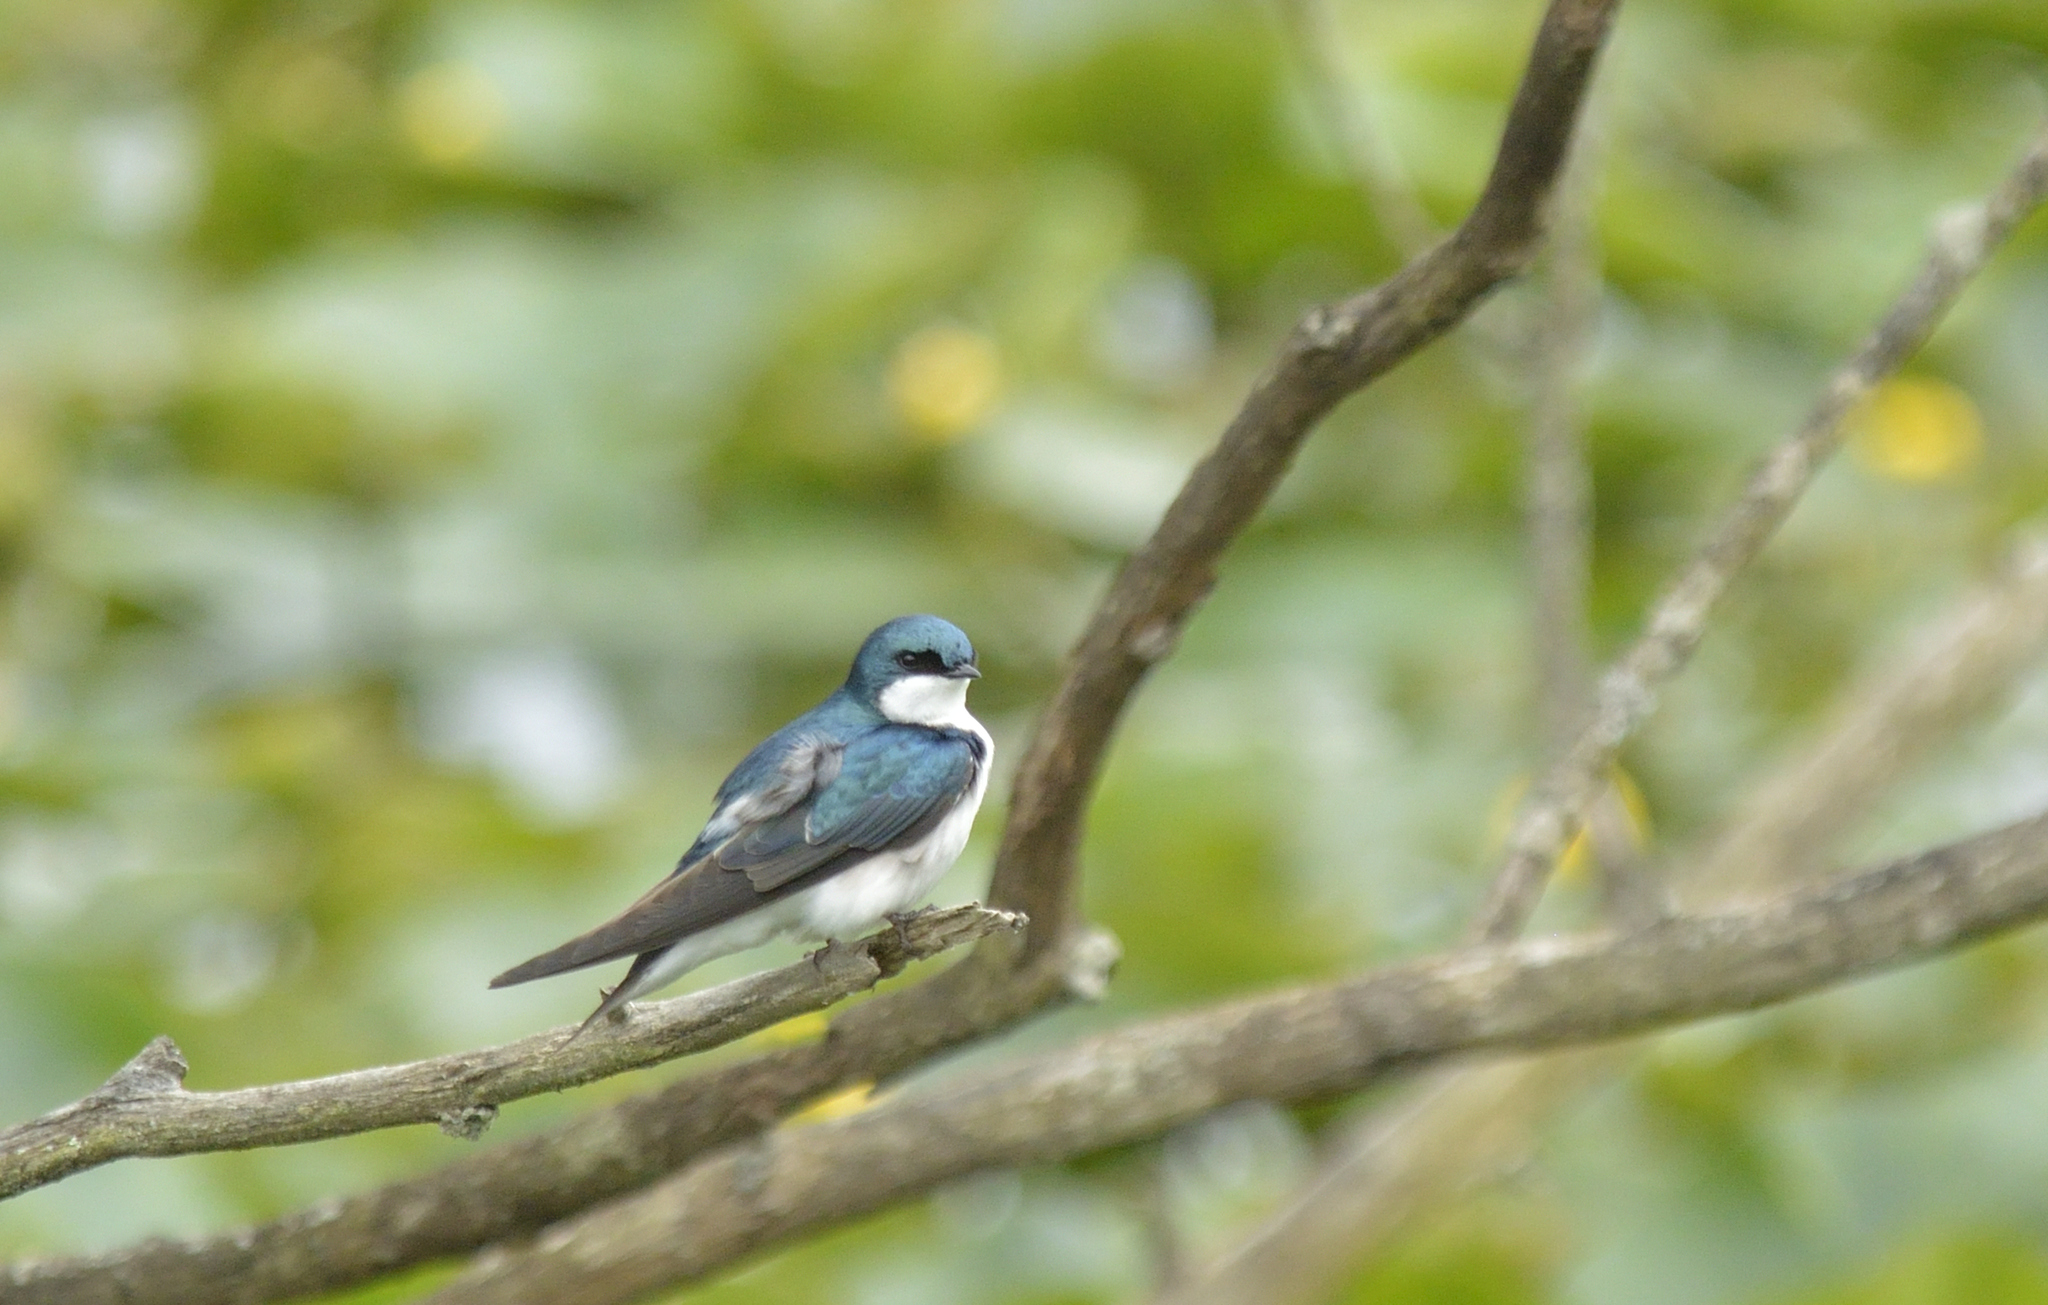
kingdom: Animalia
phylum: Chordata
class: Aves
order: Passeriformes
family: Hirundinidae
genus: Tachycineta
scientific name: Tachycineta bicolor
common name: Tree swallow
